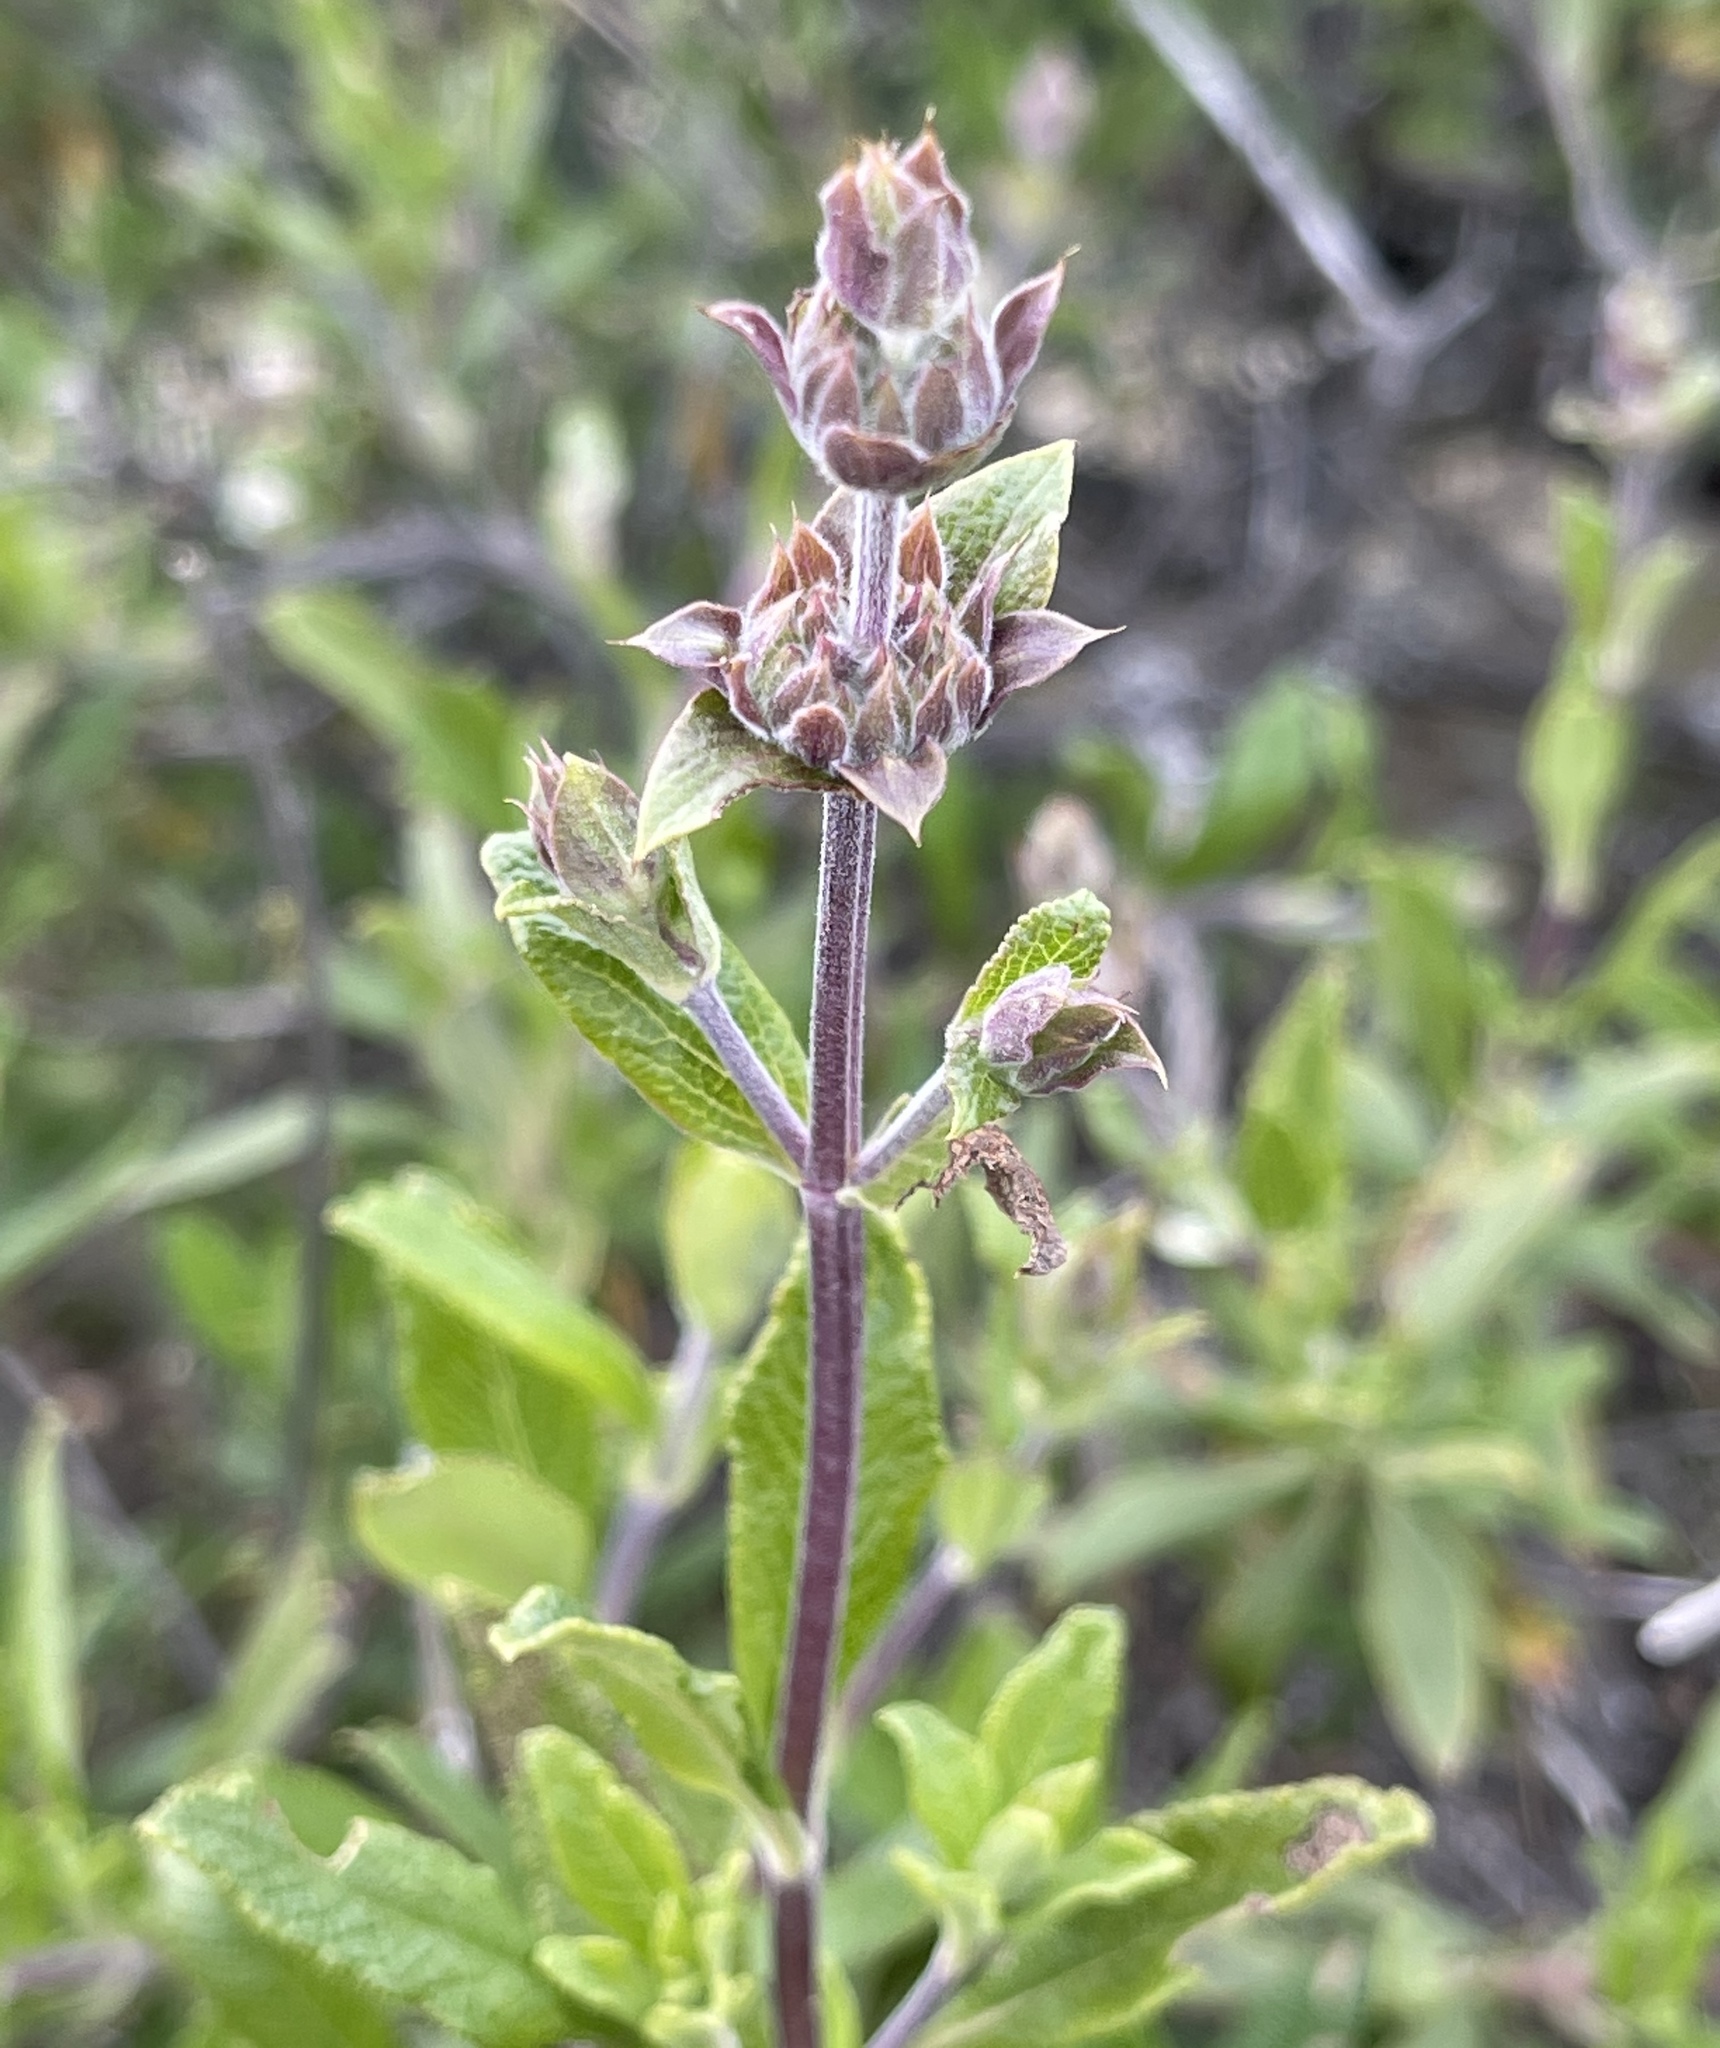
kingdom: Plantae
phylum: Tracheophyta
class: Magnoliopsida
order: Lamiales
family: Lamiaceae
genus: Salvia
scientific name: Salvia mellifera
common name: Black sage
